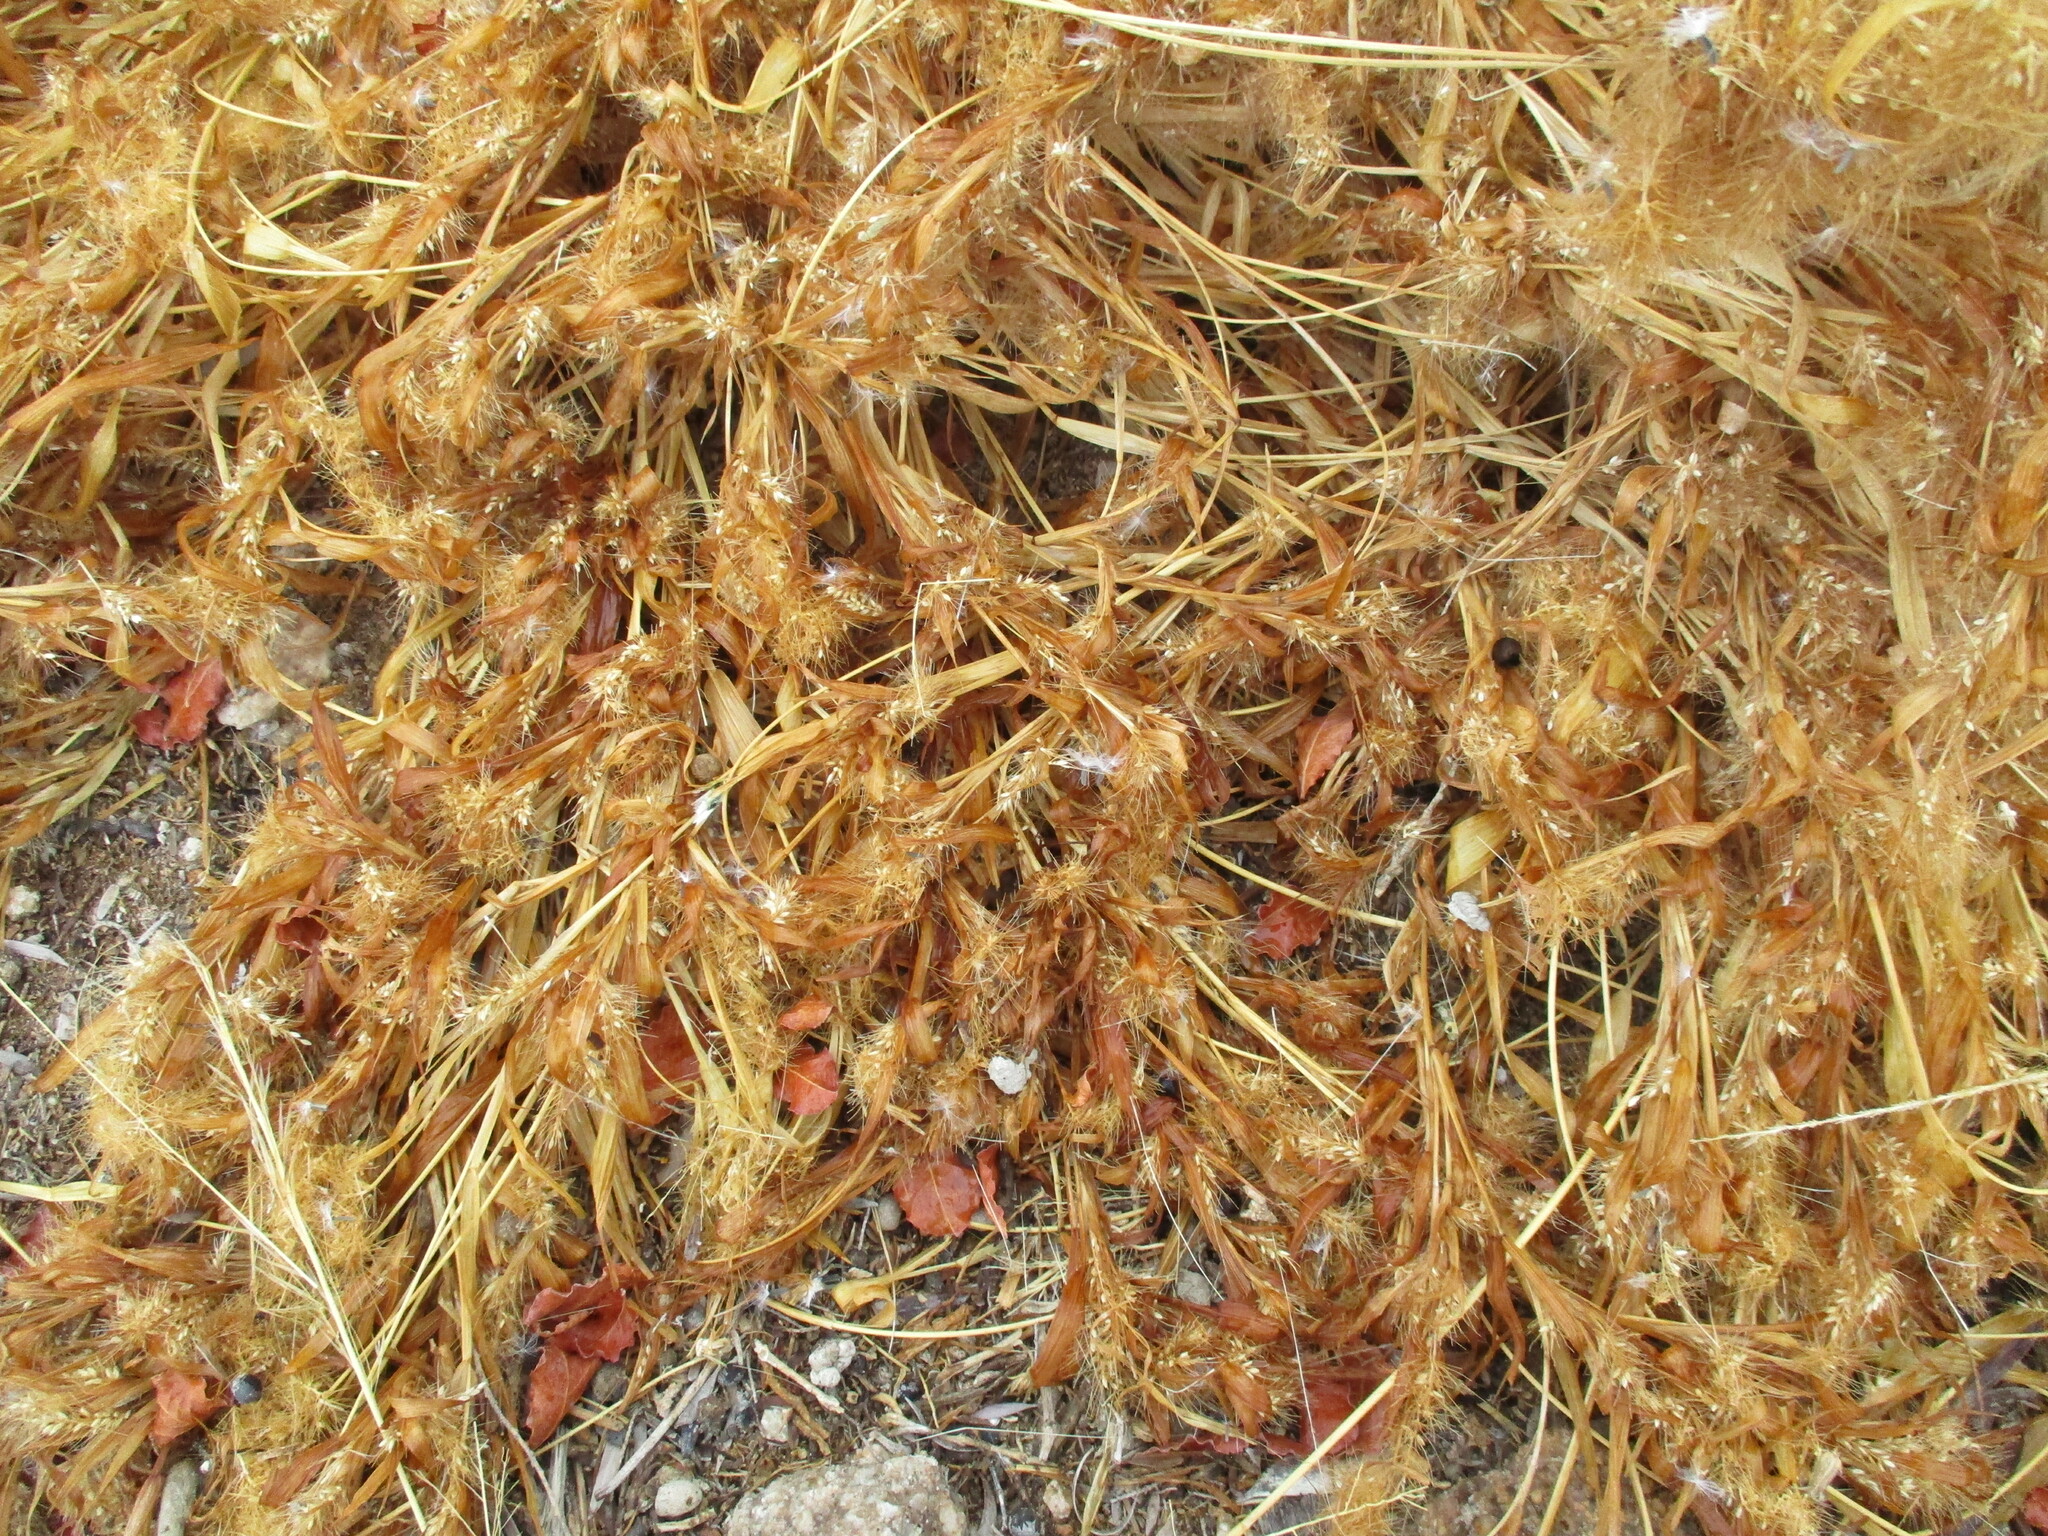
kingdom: Plantae
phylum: Tracheophyta
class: Liliopsida
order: Poales
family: Poaceae
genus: Setaria
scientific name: Setaria verticillata
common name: Hooked bristlegrass
